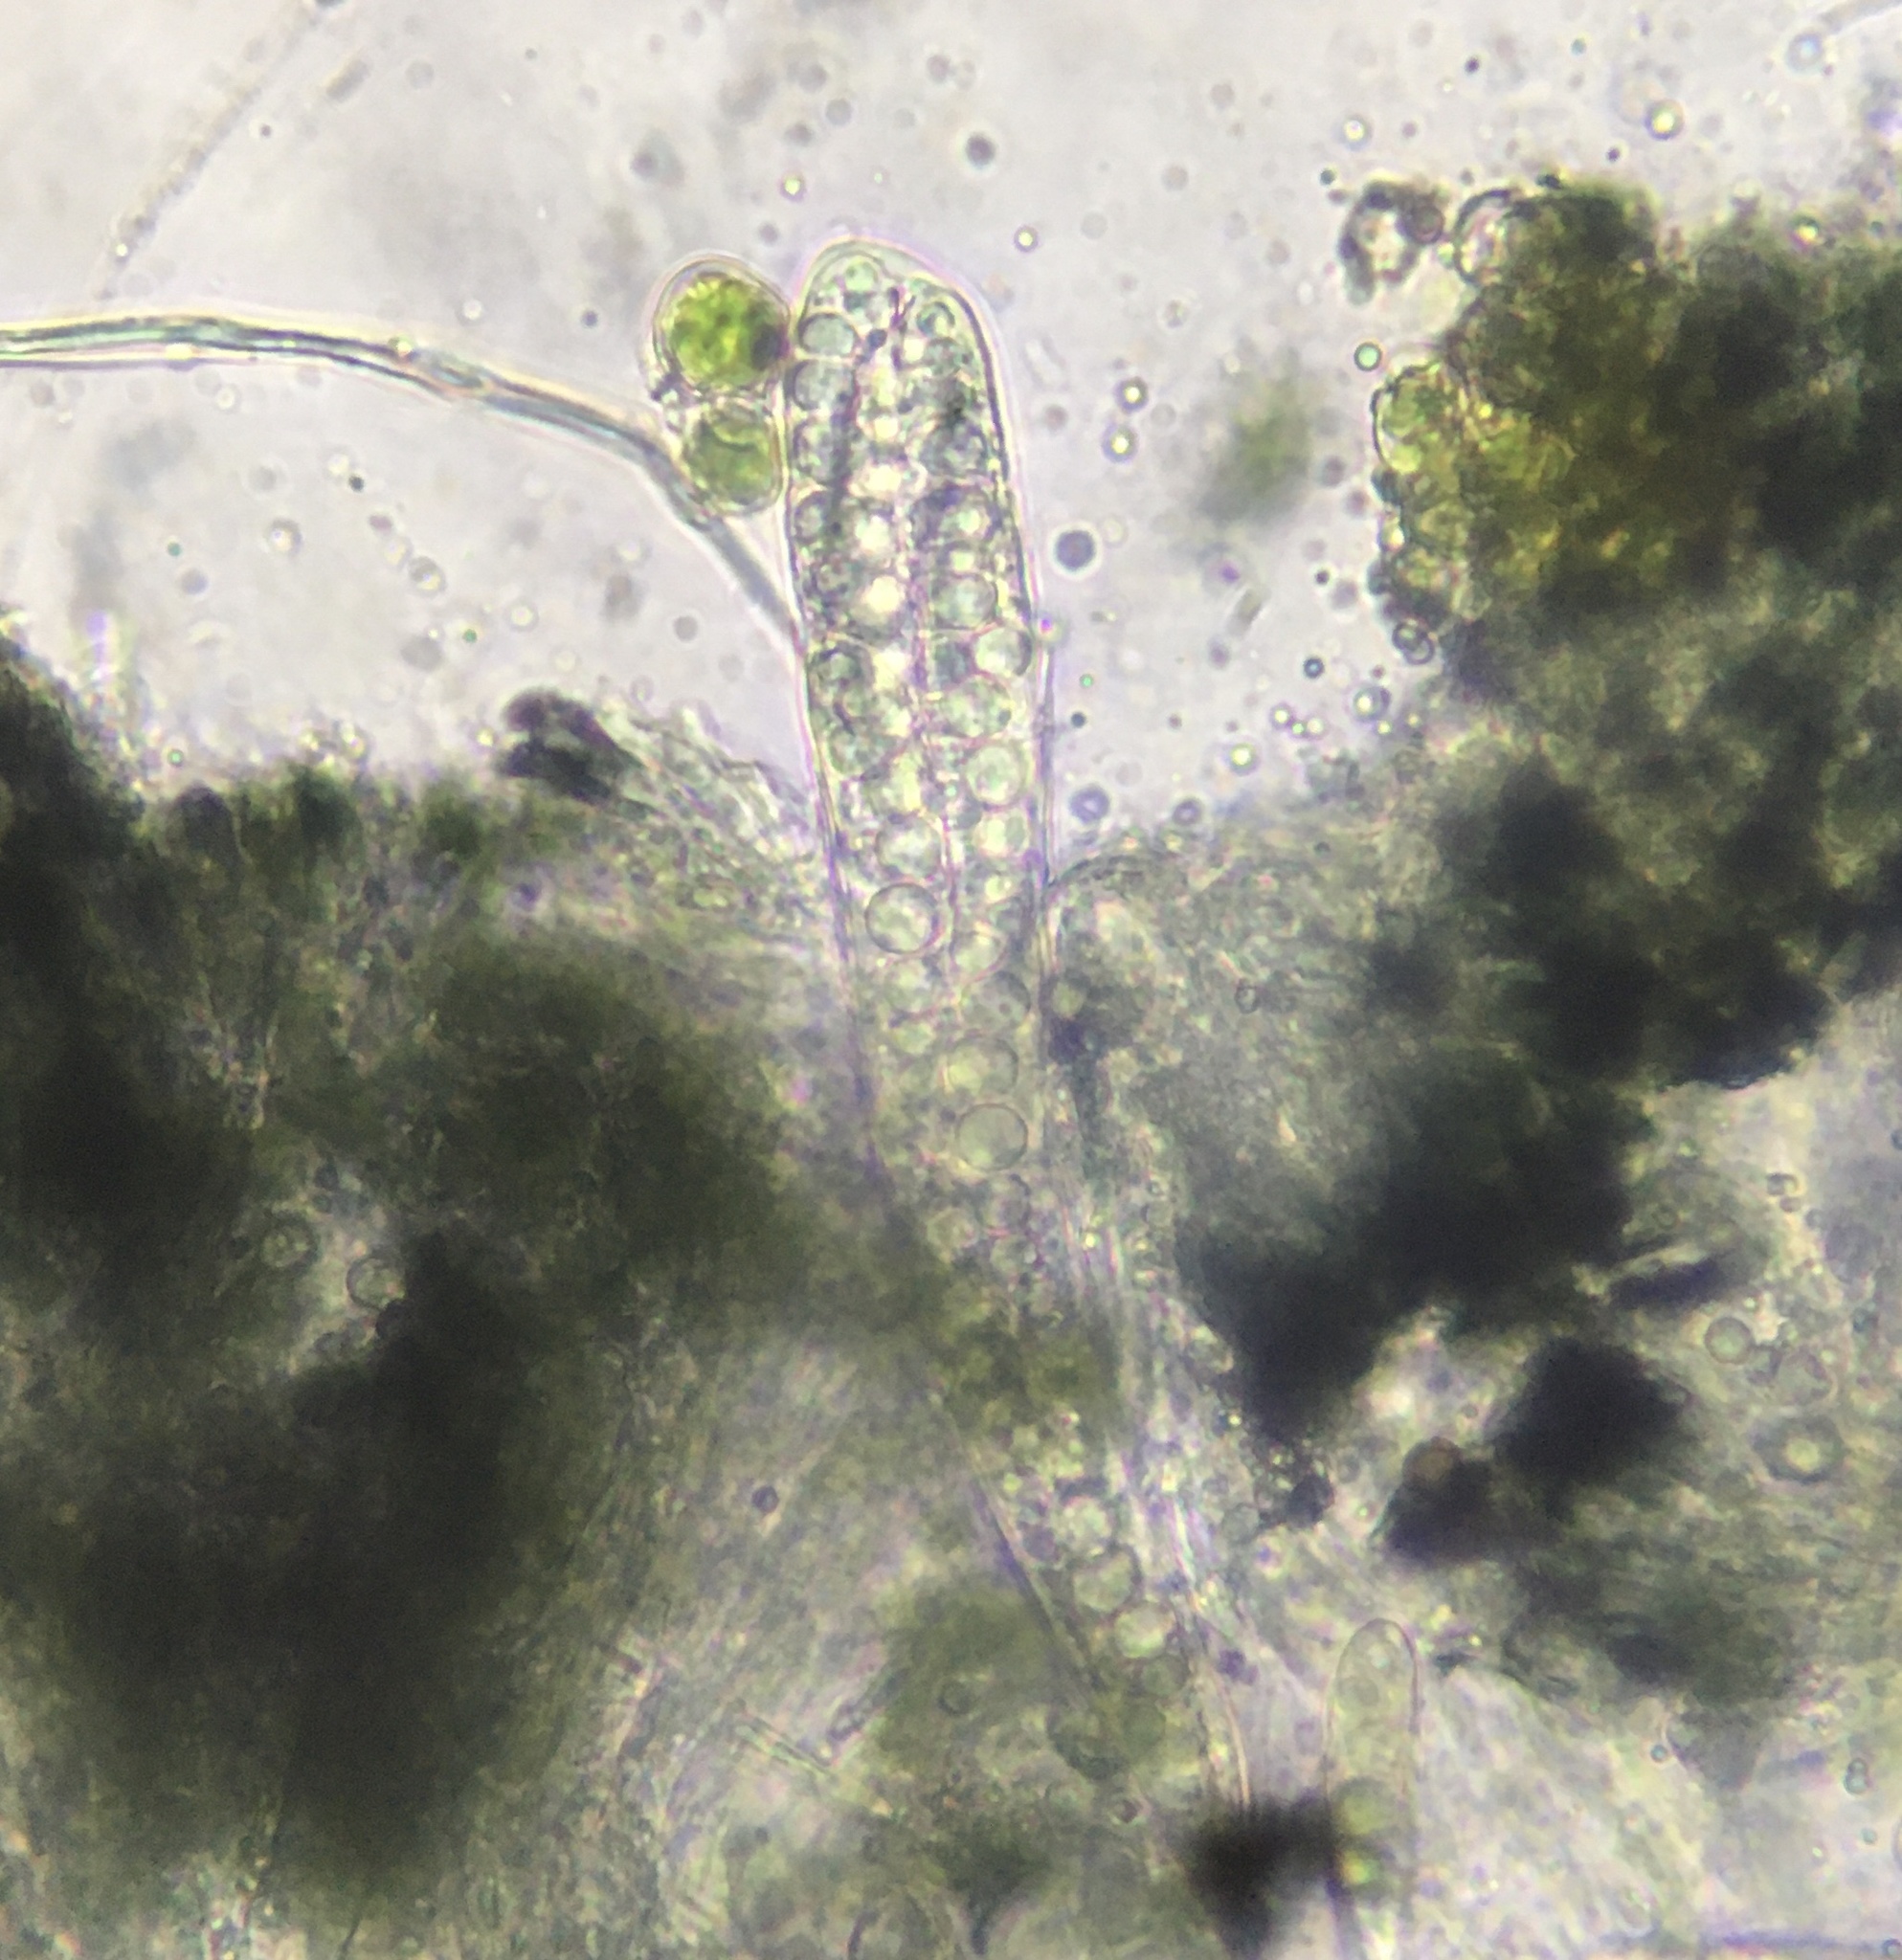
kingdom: Fungi
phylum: Ascomycota
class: Dothideomycetes
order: Patellariales
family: Patellariaceae
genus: Patellaria
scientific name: Patellaria atrata
